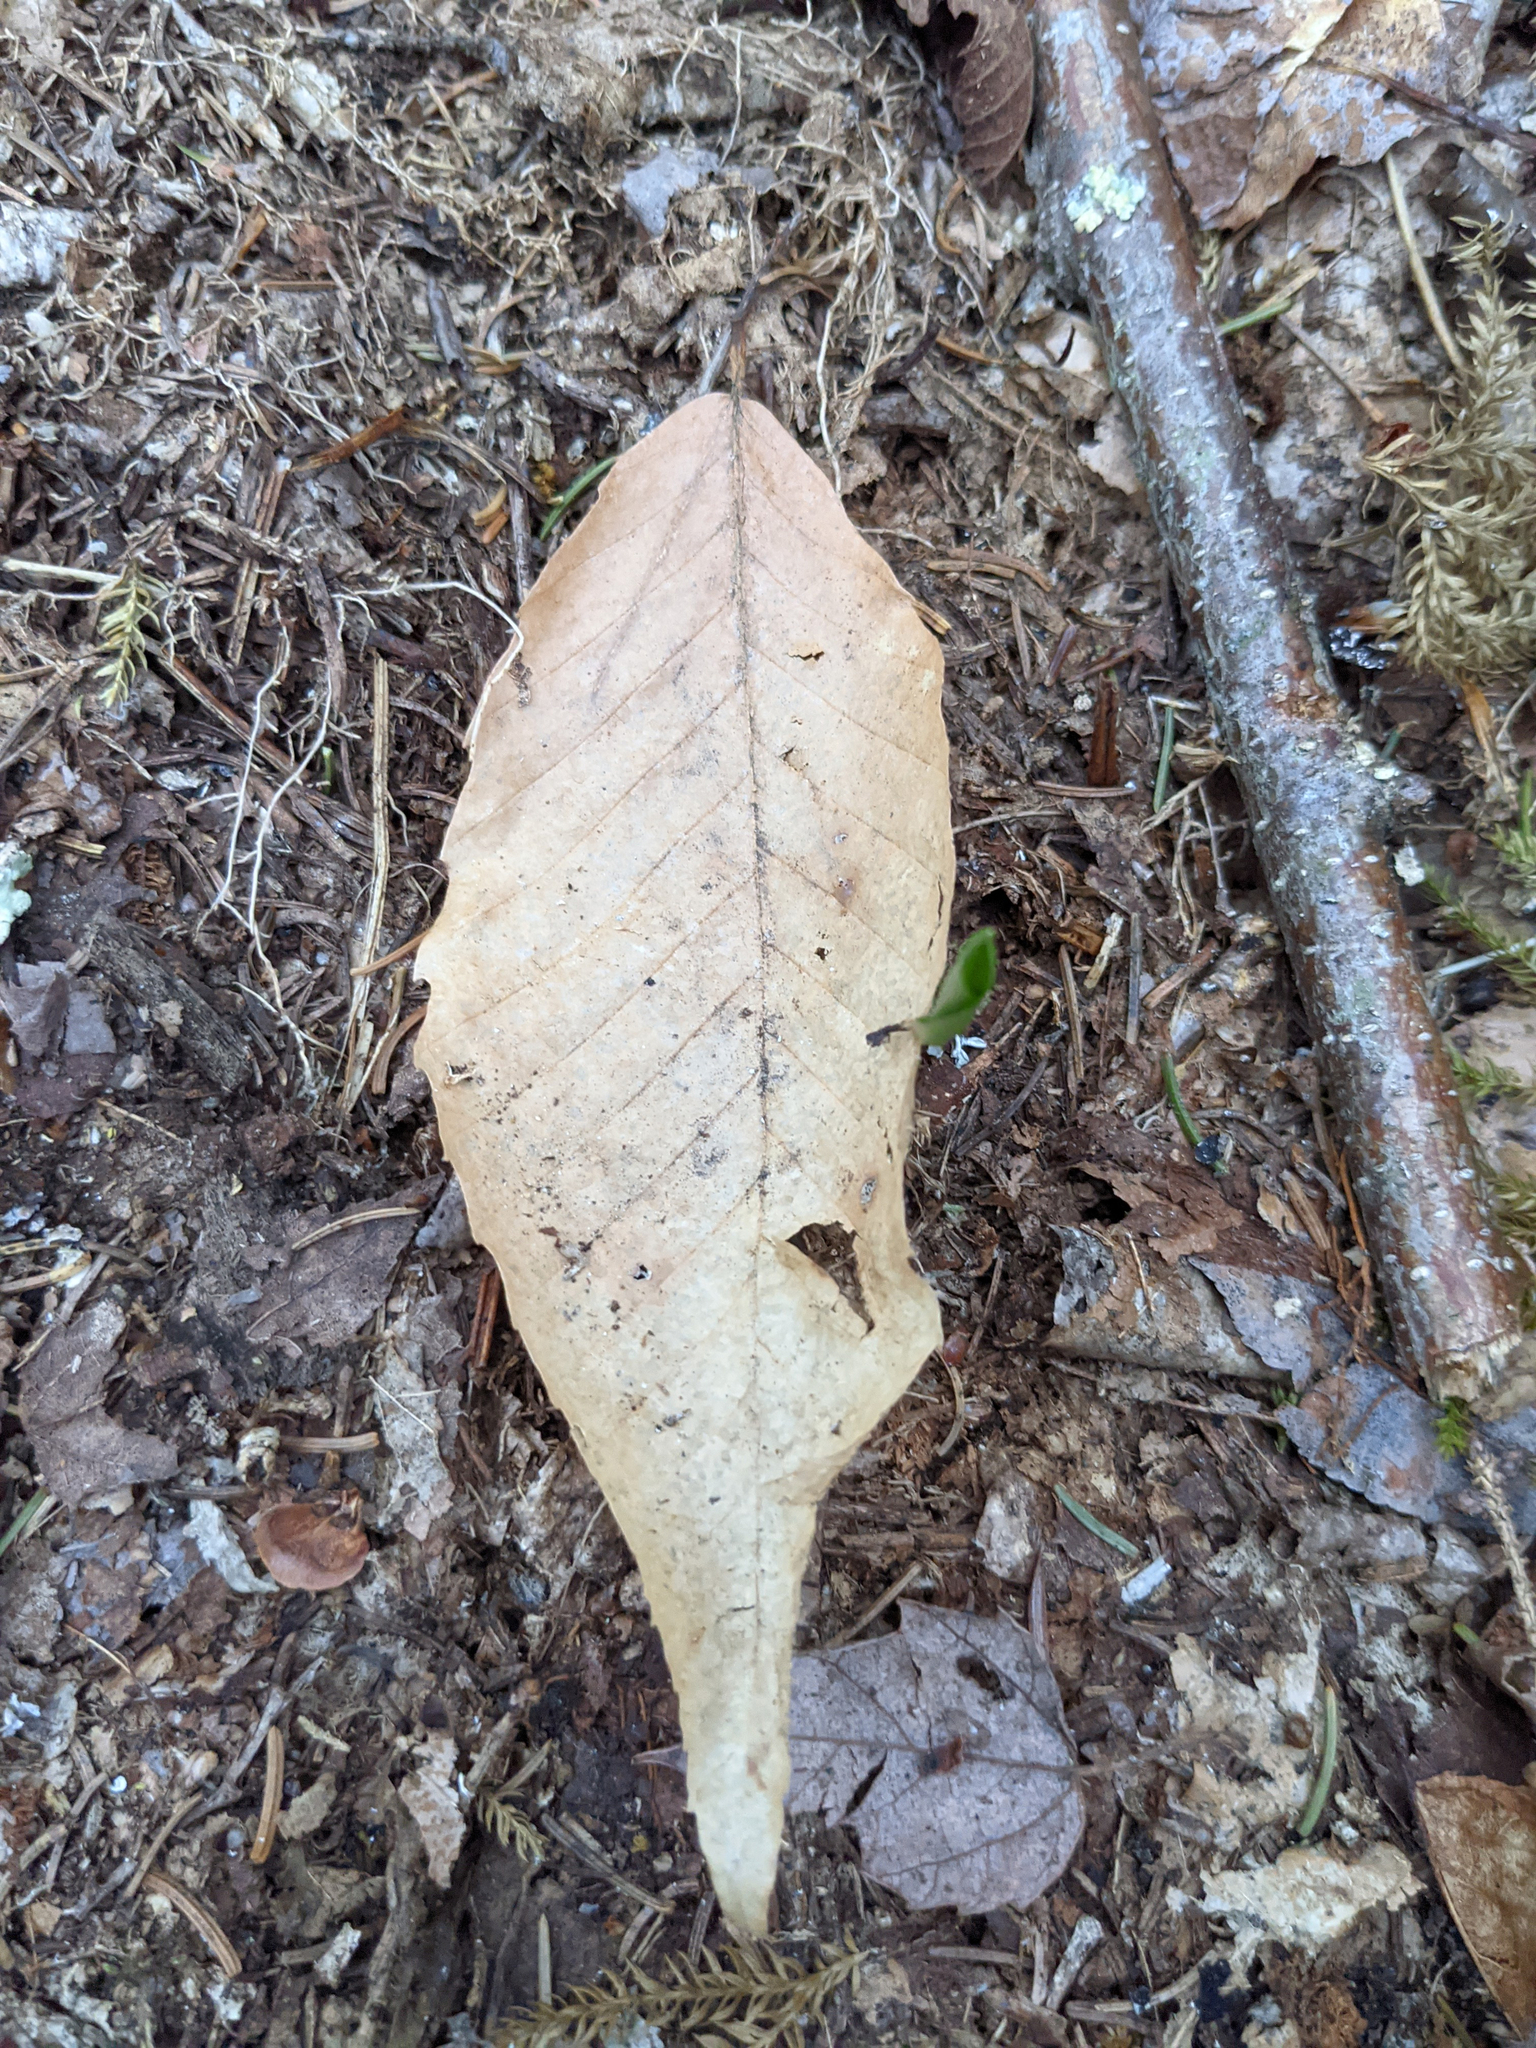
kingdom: Plantae
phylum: Tracheophyta
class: Magnoliopsida
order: Fagales
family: Fagaceae
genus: Fagus
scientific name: Fagus grandifolia
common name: American beech
